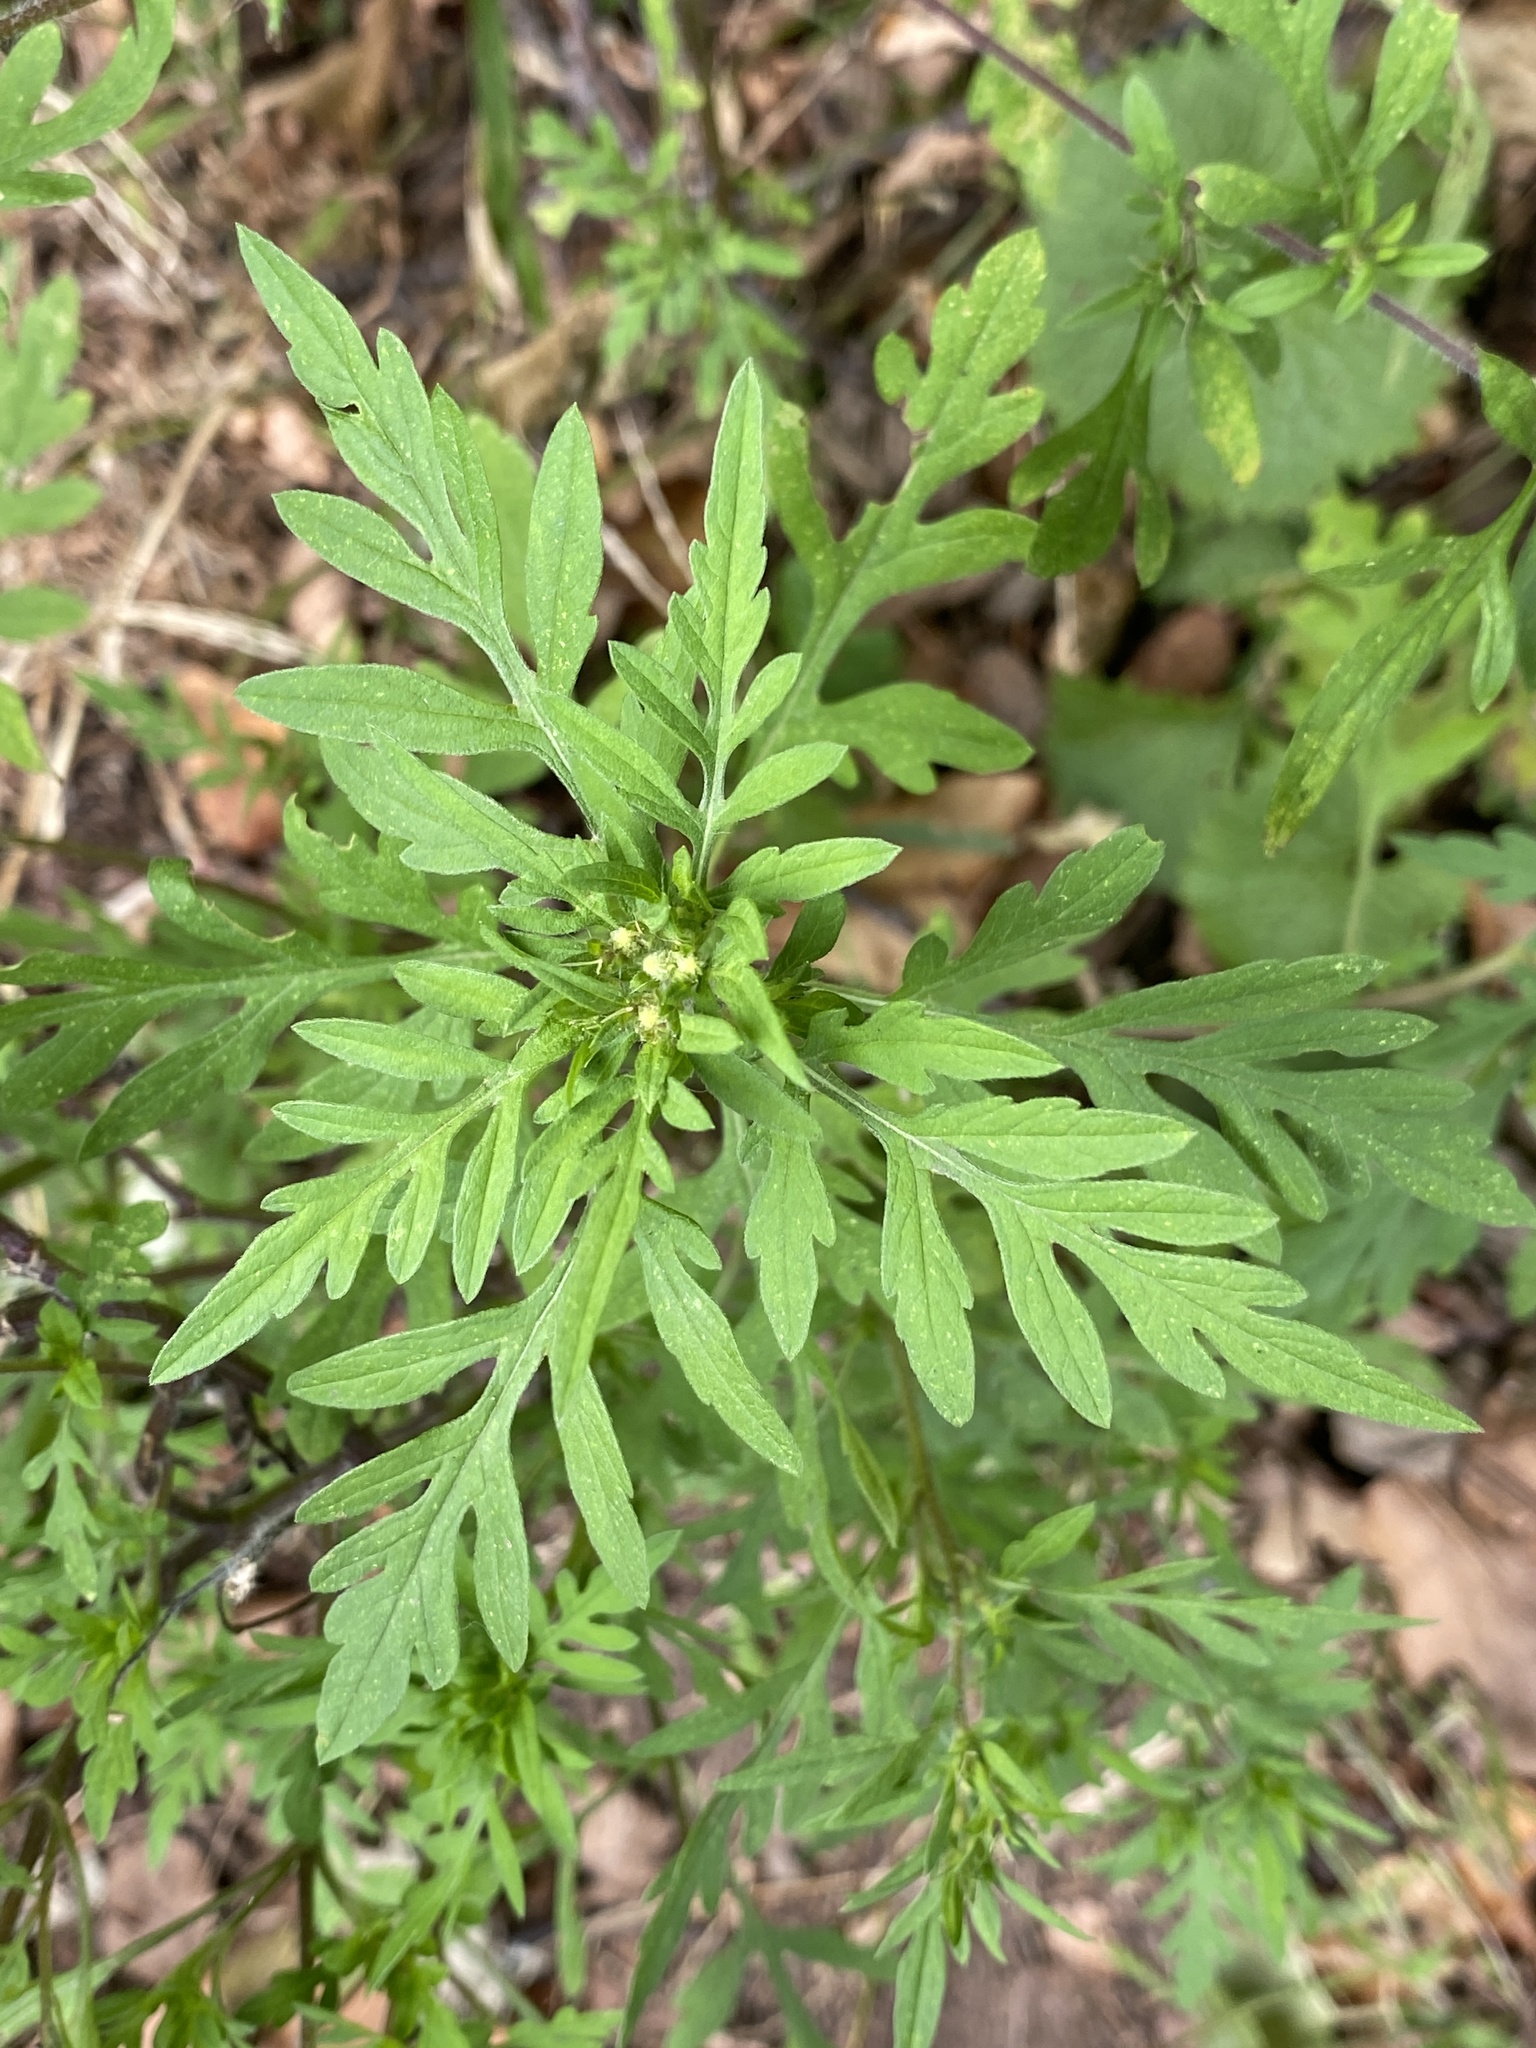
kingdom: Plantae
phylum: Tracheophyta
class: Magnoliopsida
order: Asterales
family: Asteraceae
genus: Ambrosia
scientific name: Ambrosia artemisiifolia
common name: Annual ragweed
